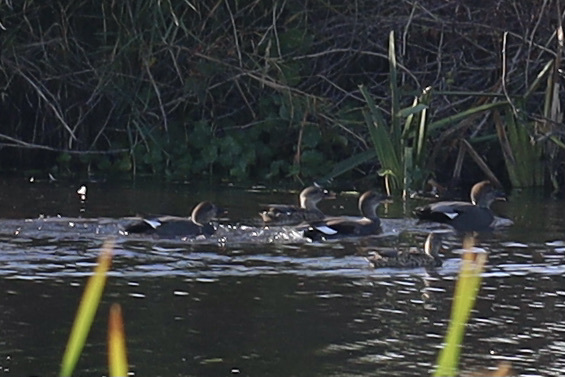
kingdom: Animalia
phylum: Chordata
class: Aves
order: Anseriformes
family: Anatidae
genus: Mareca
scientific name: Mareca strepera
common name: Gadwall
